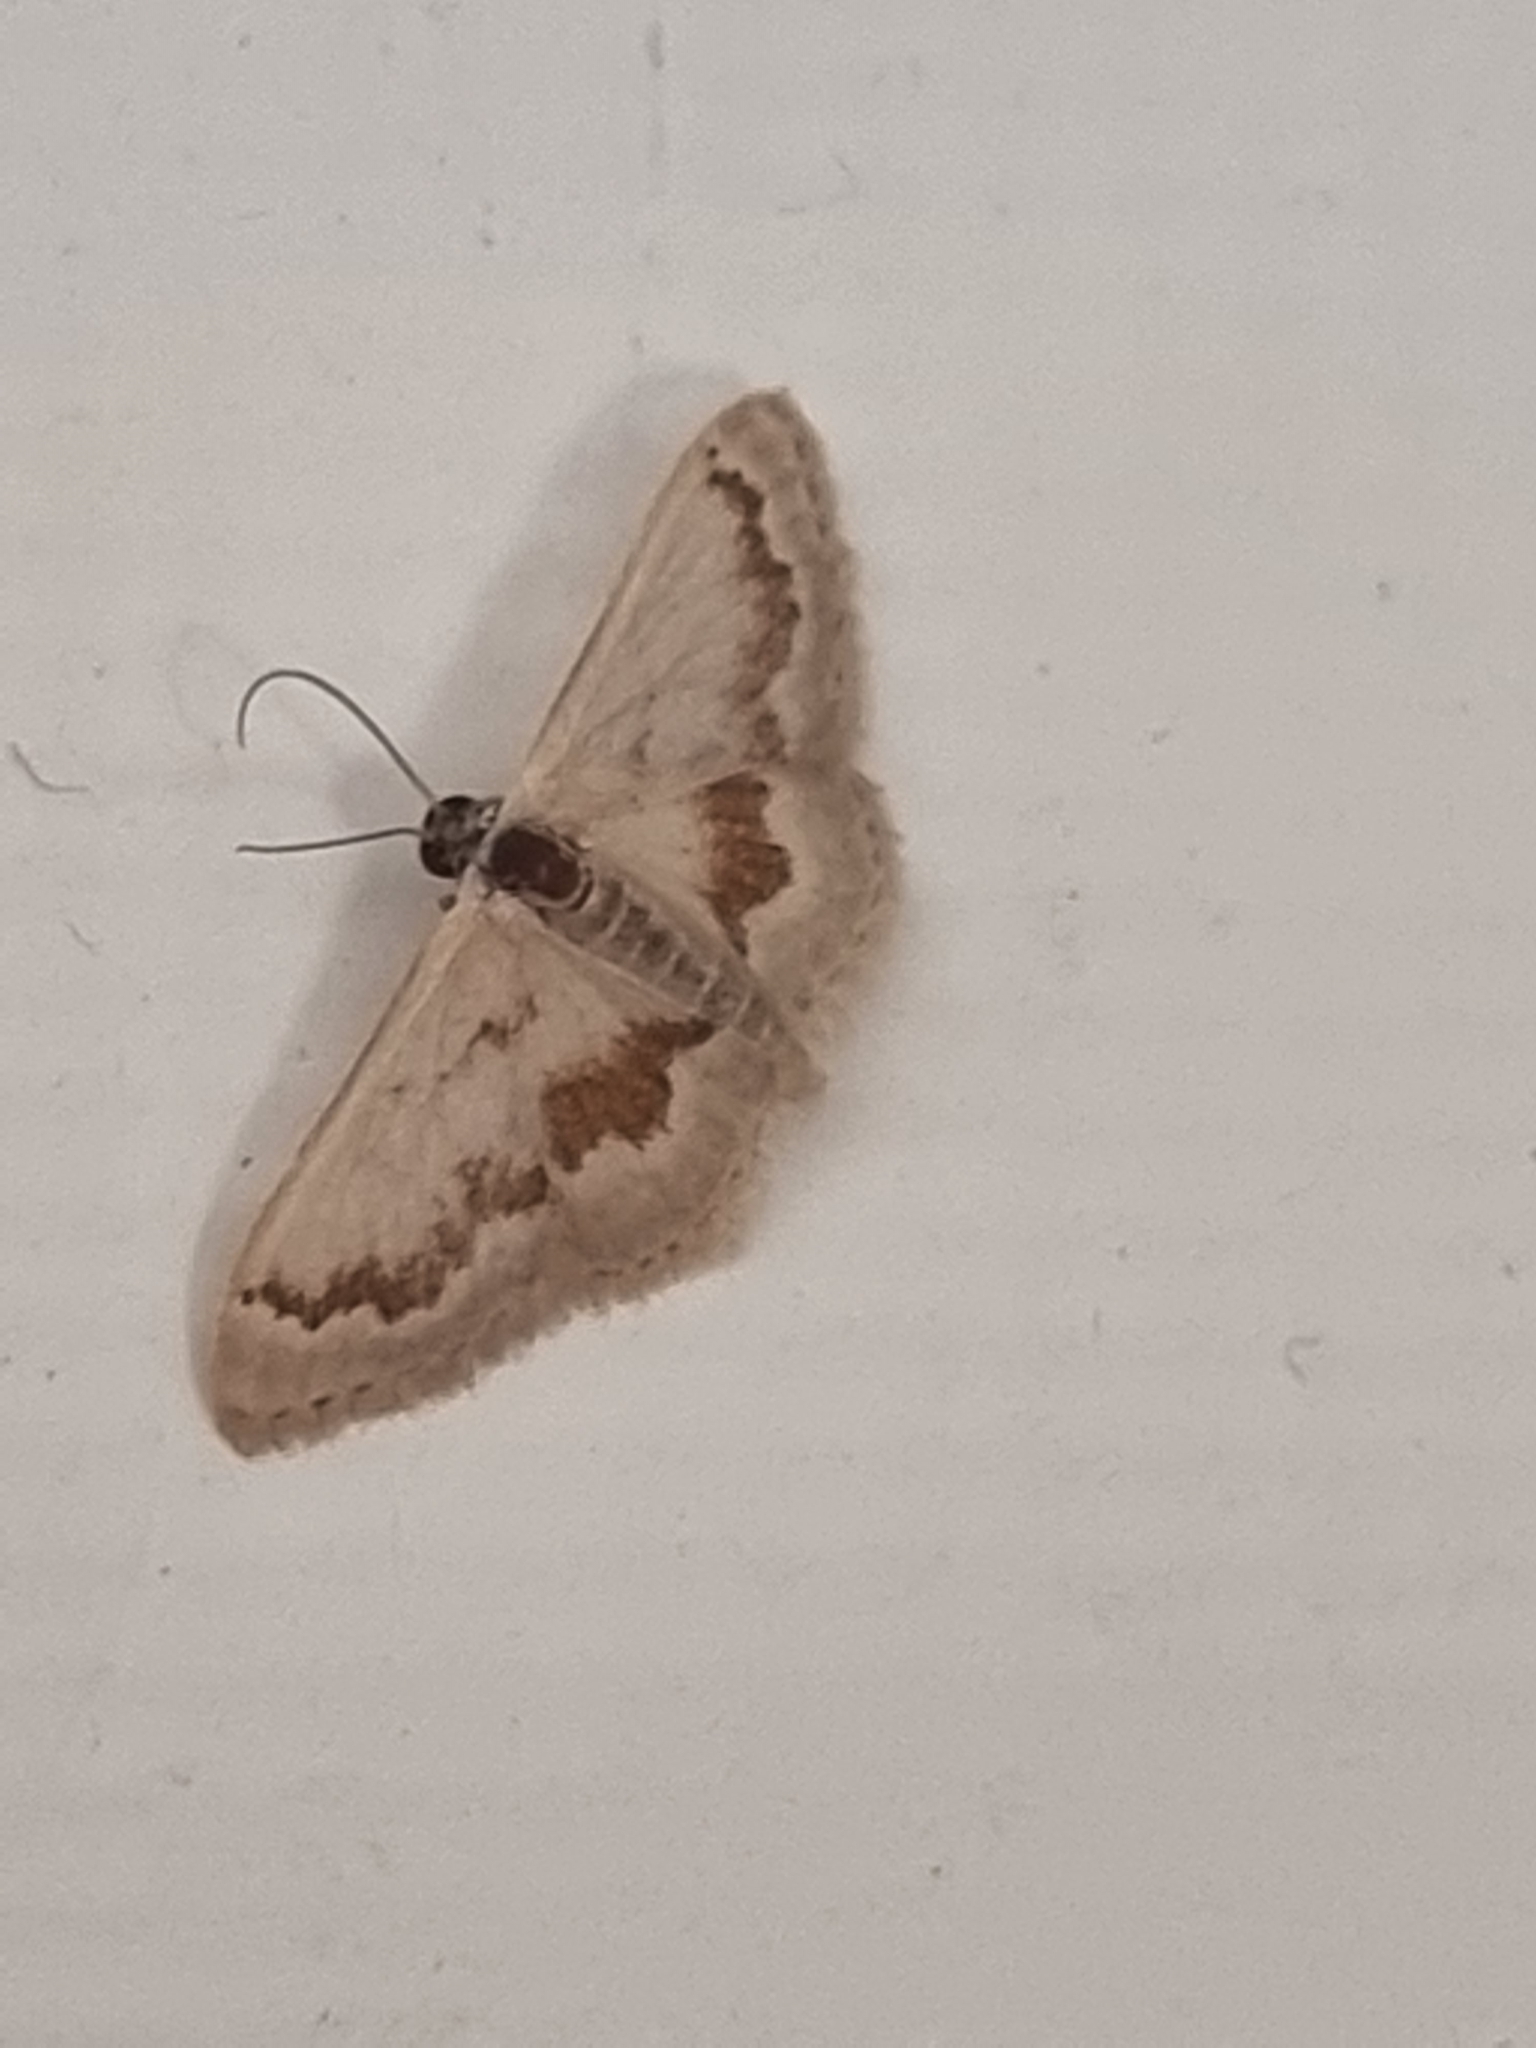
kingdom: Animalia
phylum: Arthropoda
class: Insecta
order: Lepidoptera
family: Geometridae
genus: Idaea
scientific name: Idaea iodesma
